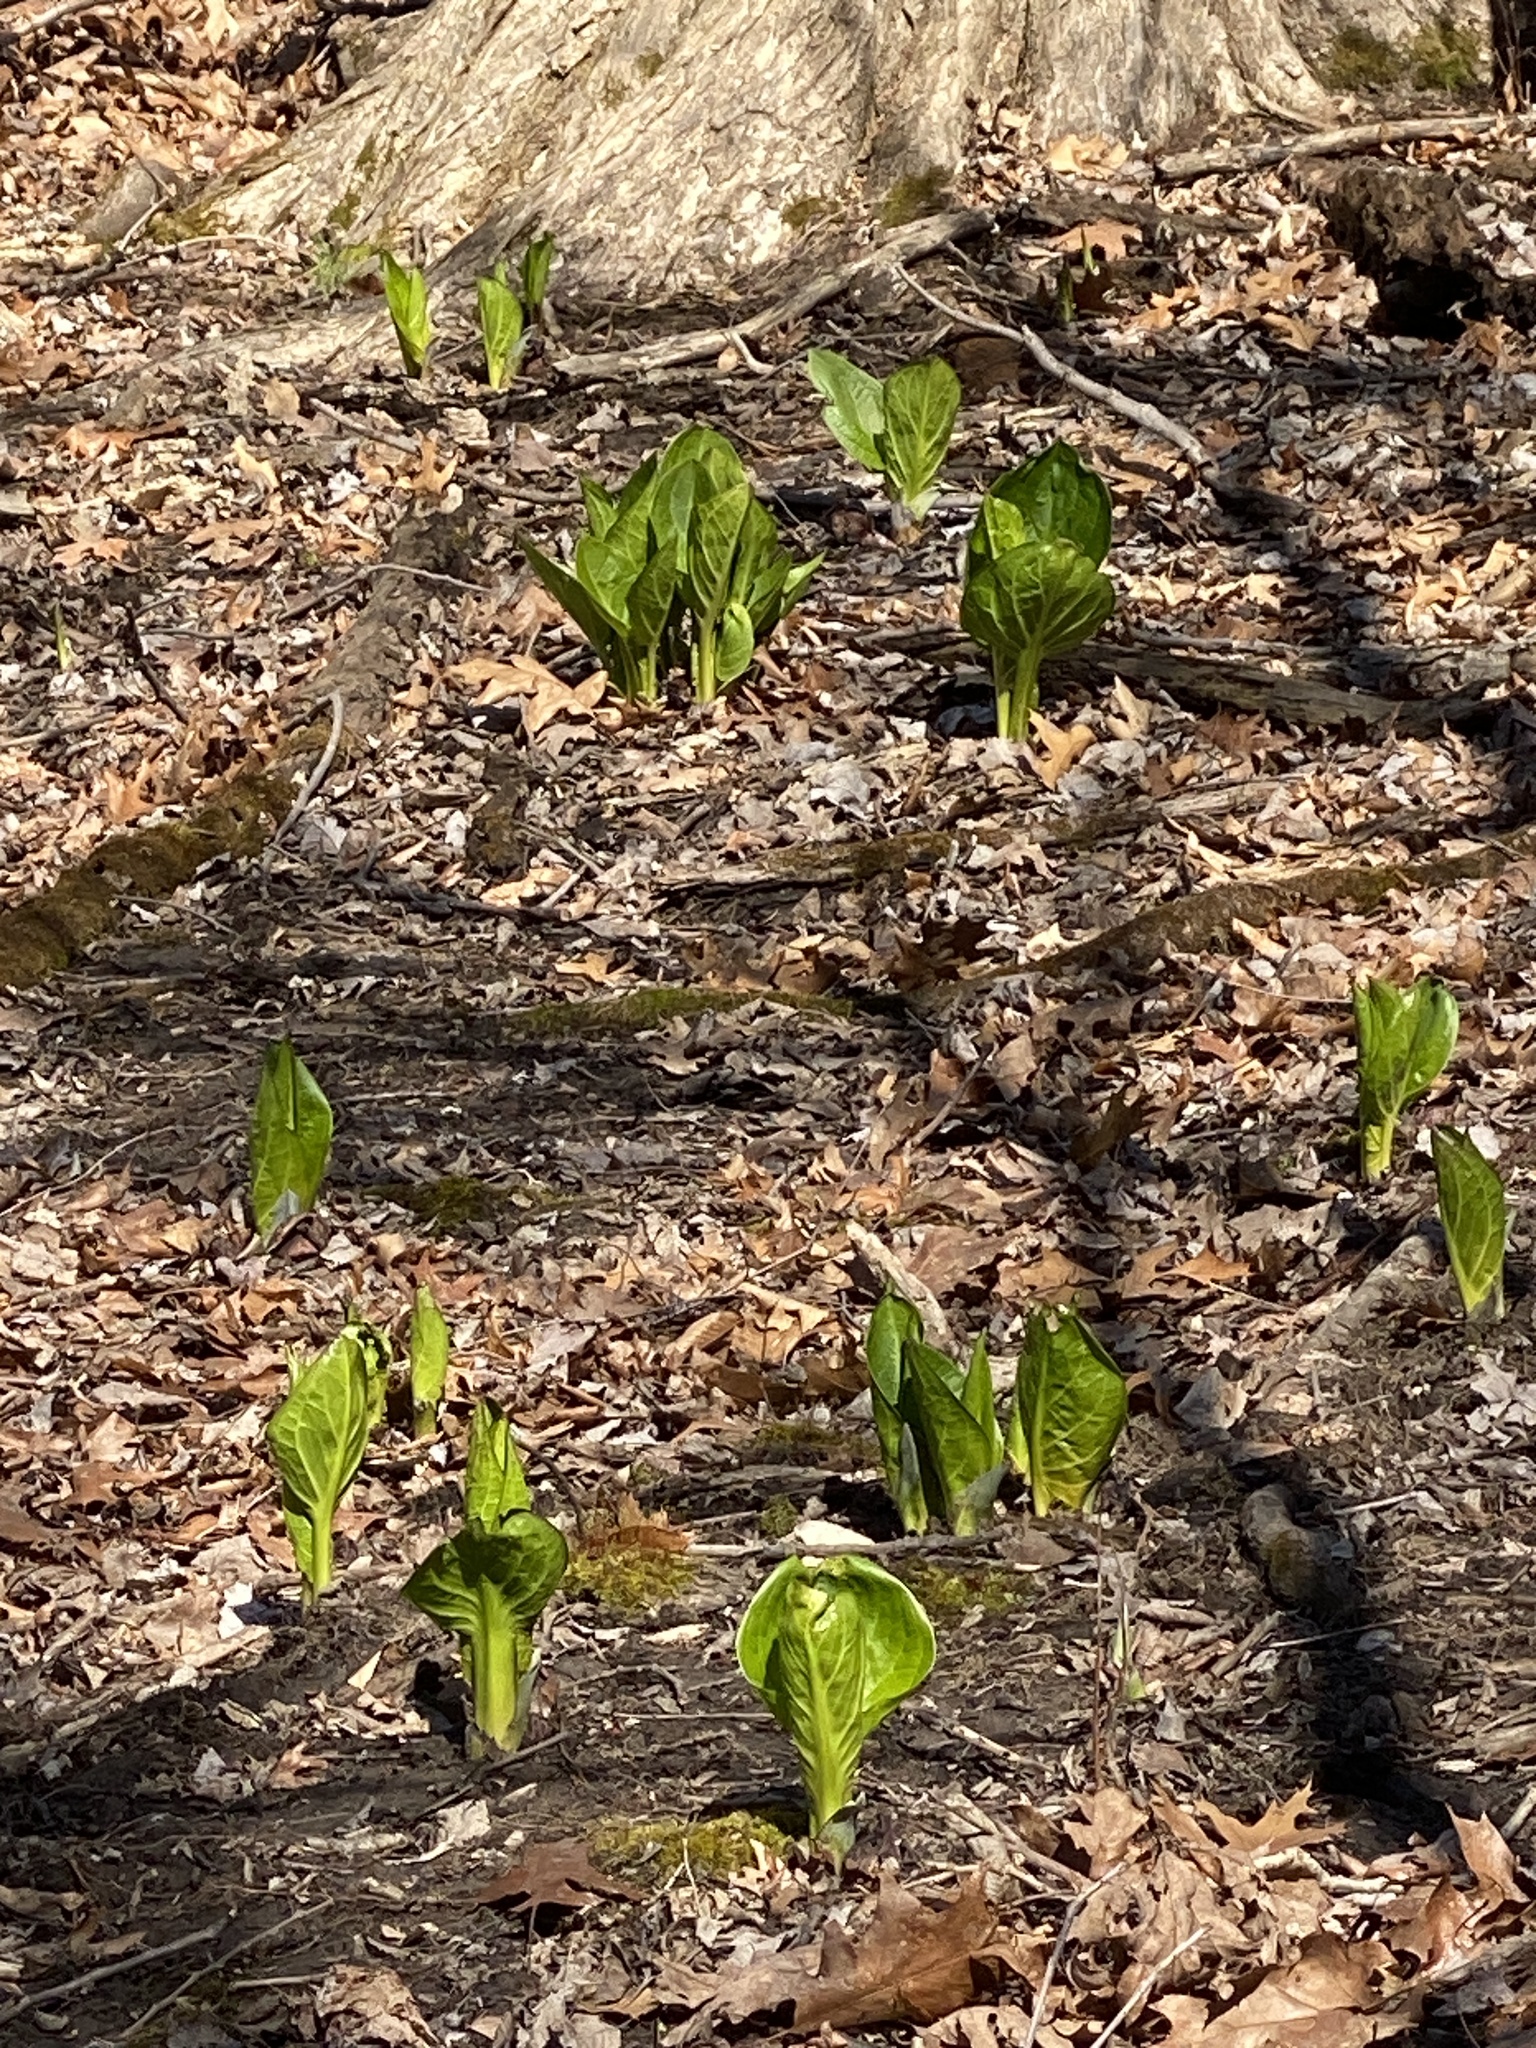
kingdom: Plantae
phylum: Tracheophyta
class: Liliopsida
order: Alismatales
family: Araceae
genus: Symplocarpus
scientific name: Symplocarpus foetidus
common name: Eastern skunk cabbage
